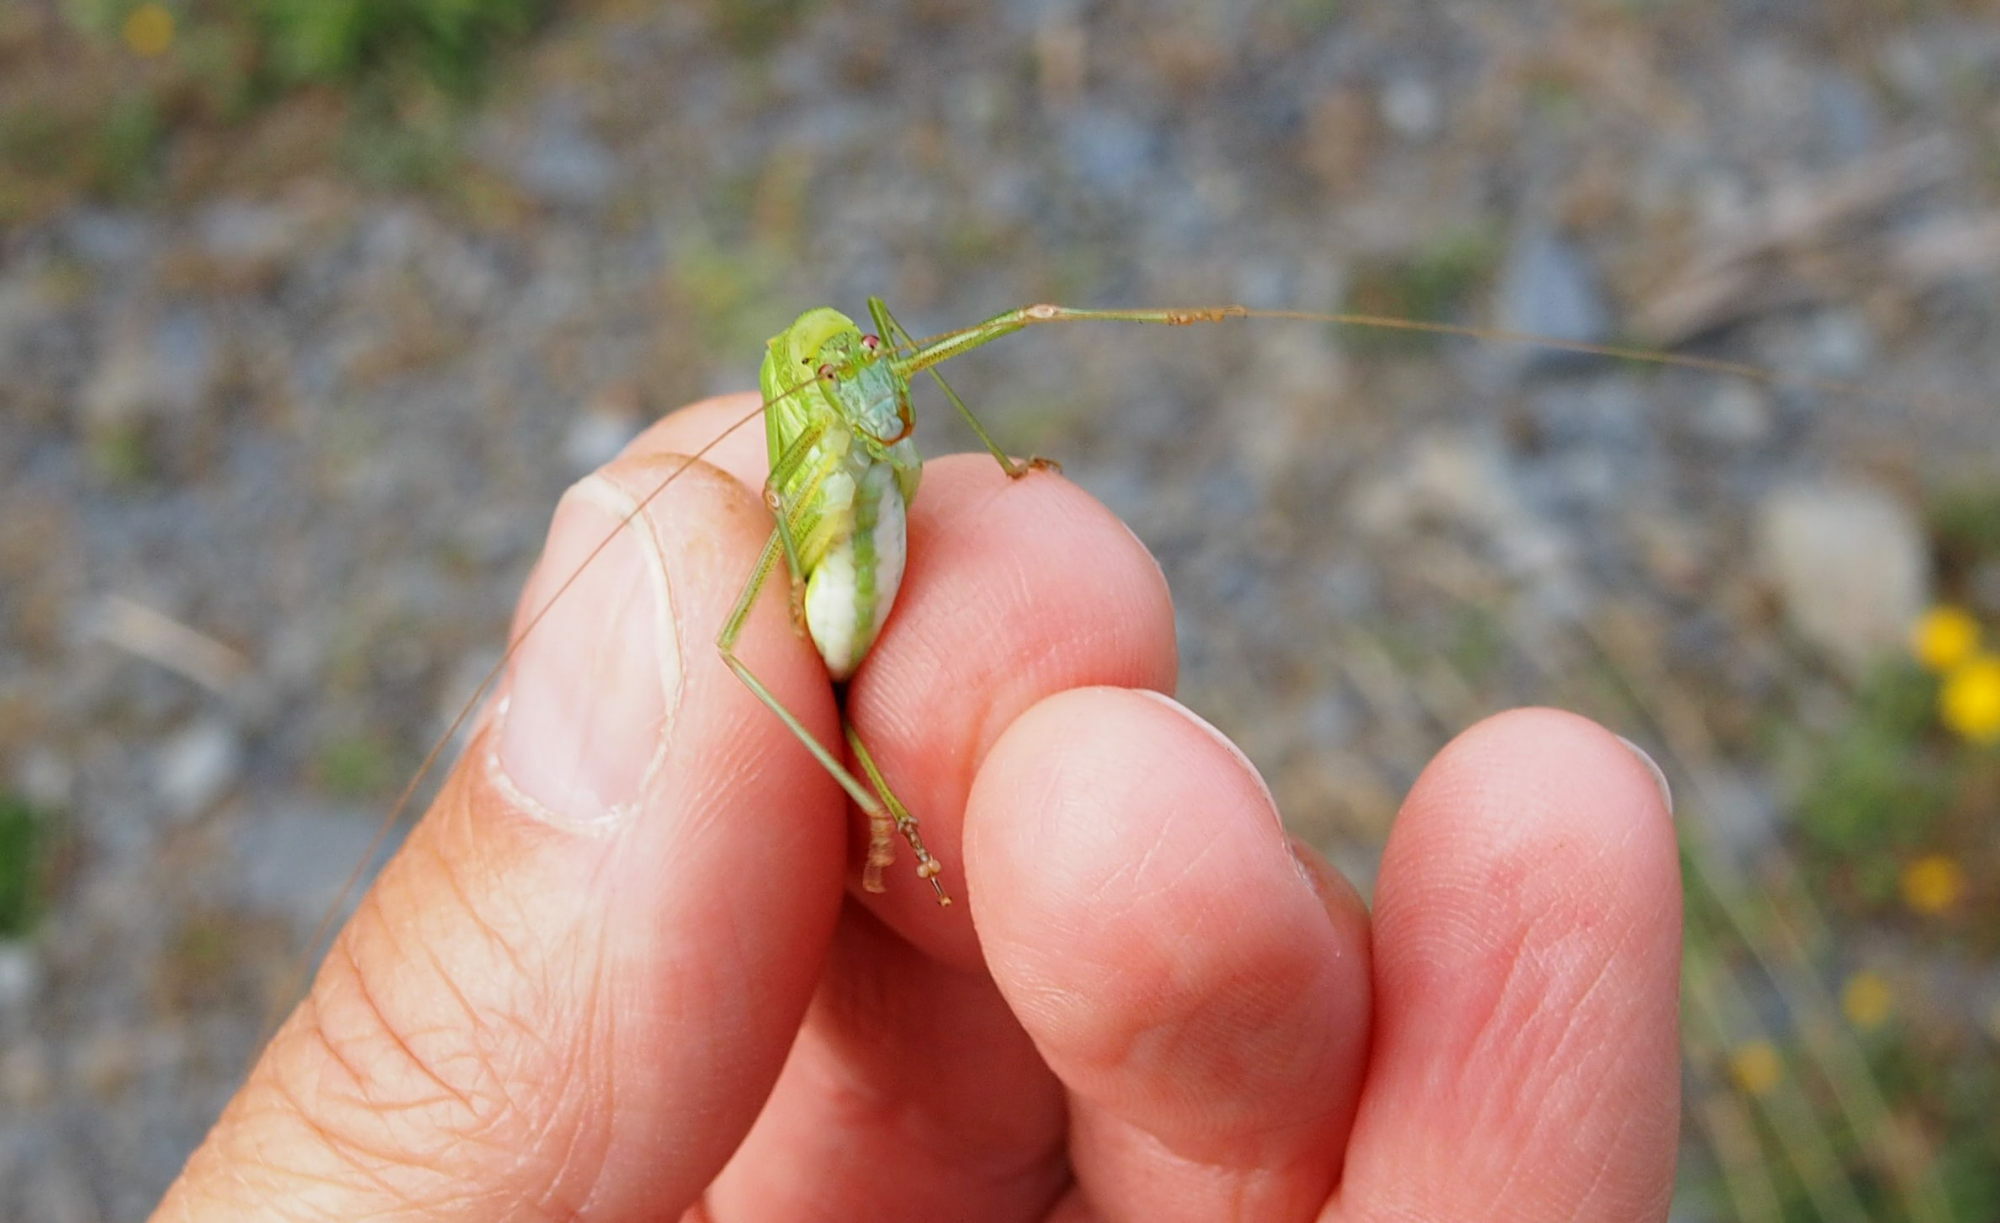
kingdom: Animalia
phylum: Arthropoda
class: Insecta
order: Orthoptera
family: Tettigoniidae
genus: Phaneroptera
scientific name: Phaneroptera falcata
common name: Sickle-bearing bush-cricket
